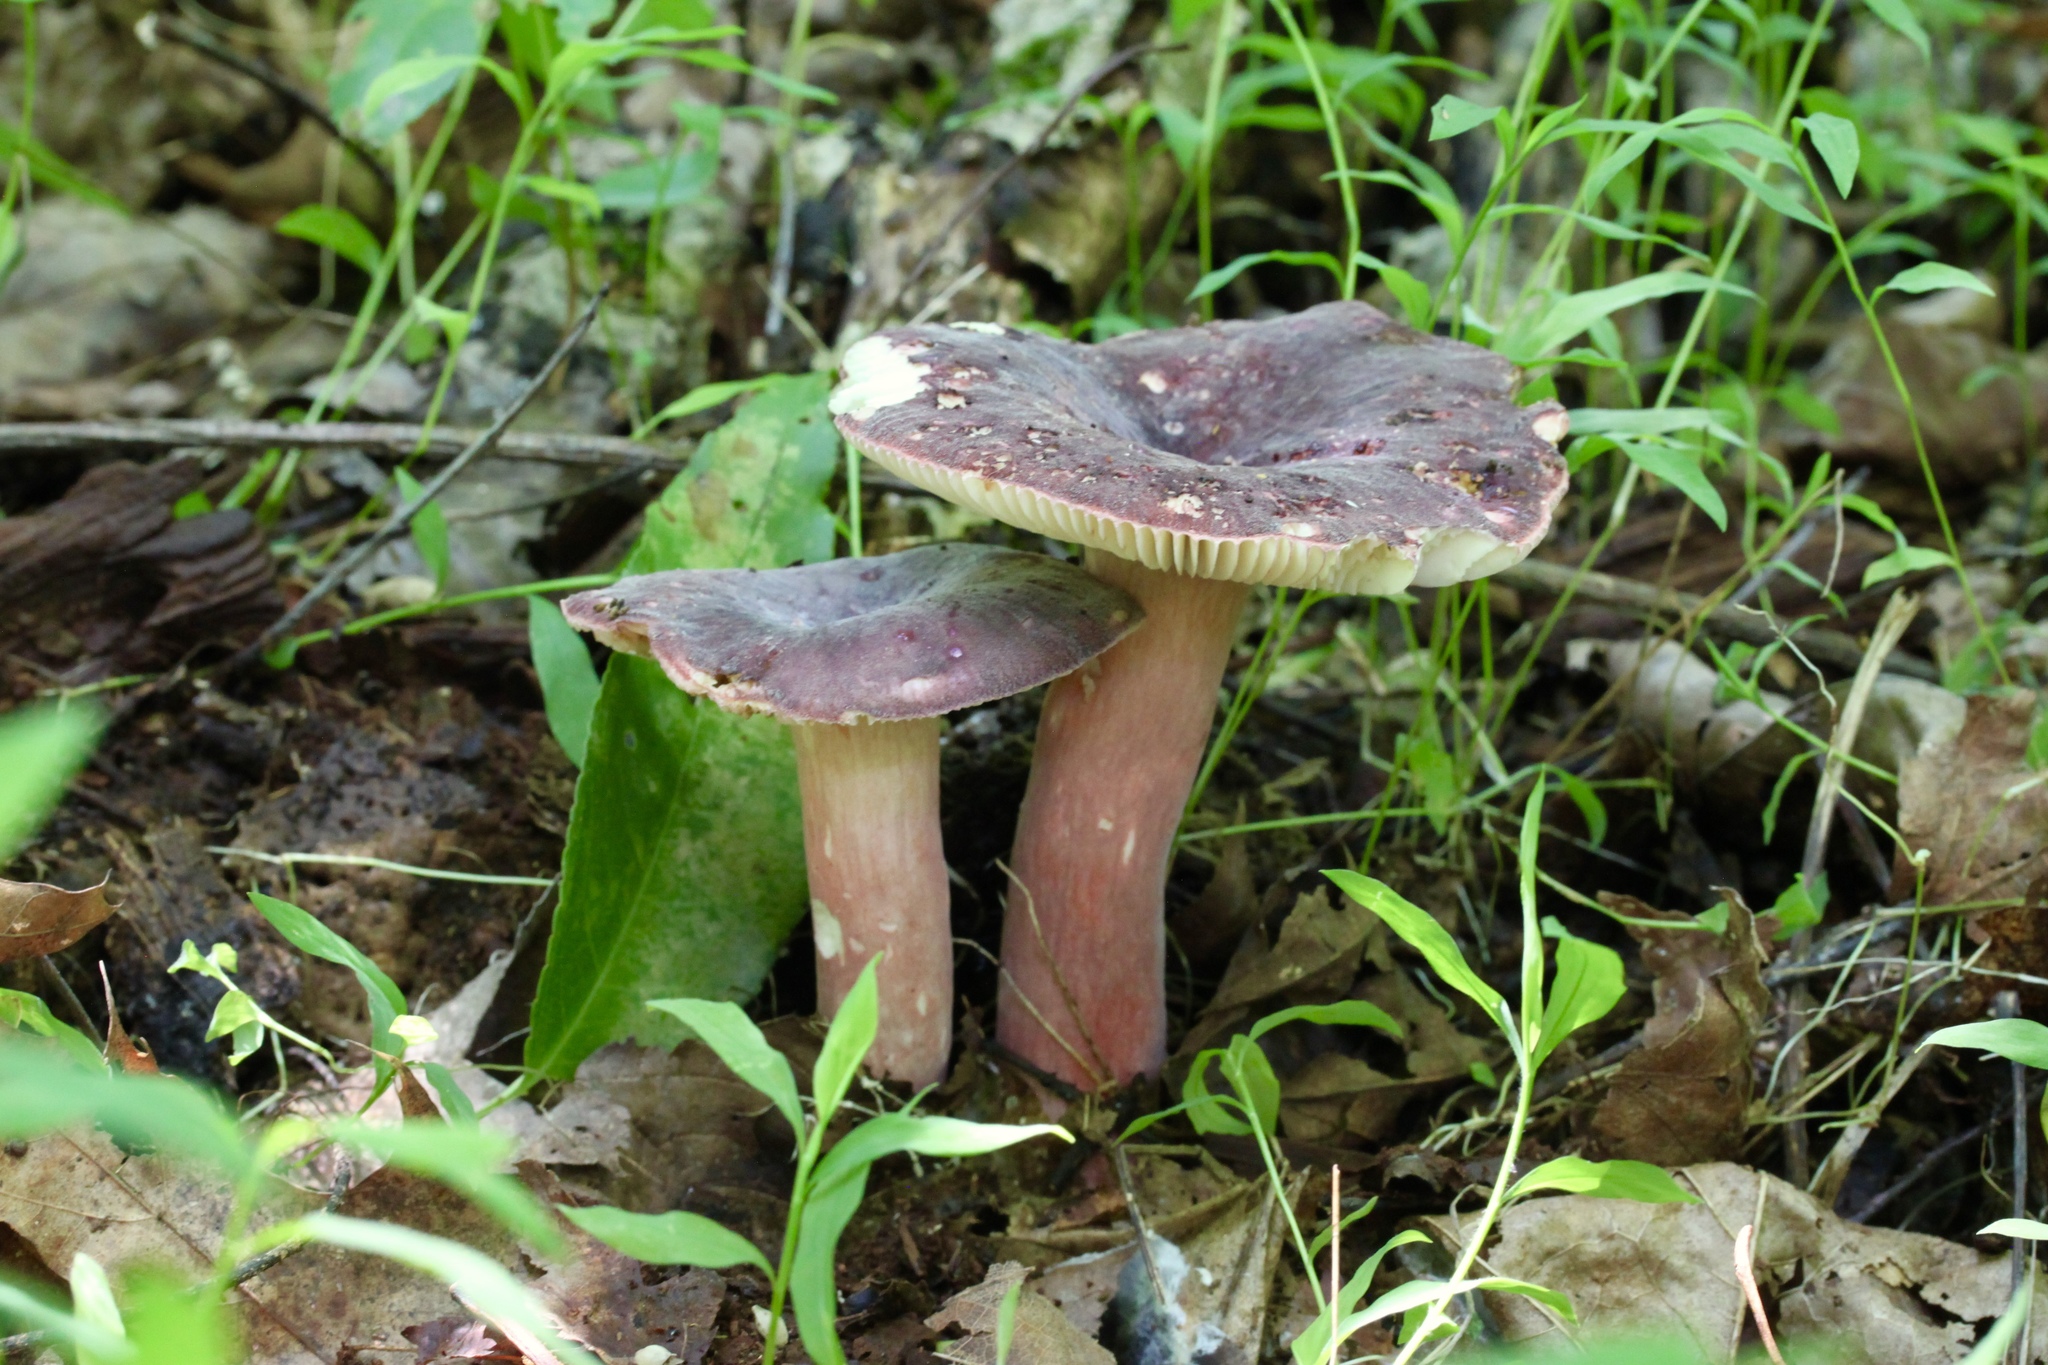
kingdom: Fungi
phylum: Basidiomycota
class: Agaricomycetes
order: Russulales
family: Russulaceae
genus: Russula
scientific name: Russula mariae
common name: Purple-bloom russula
